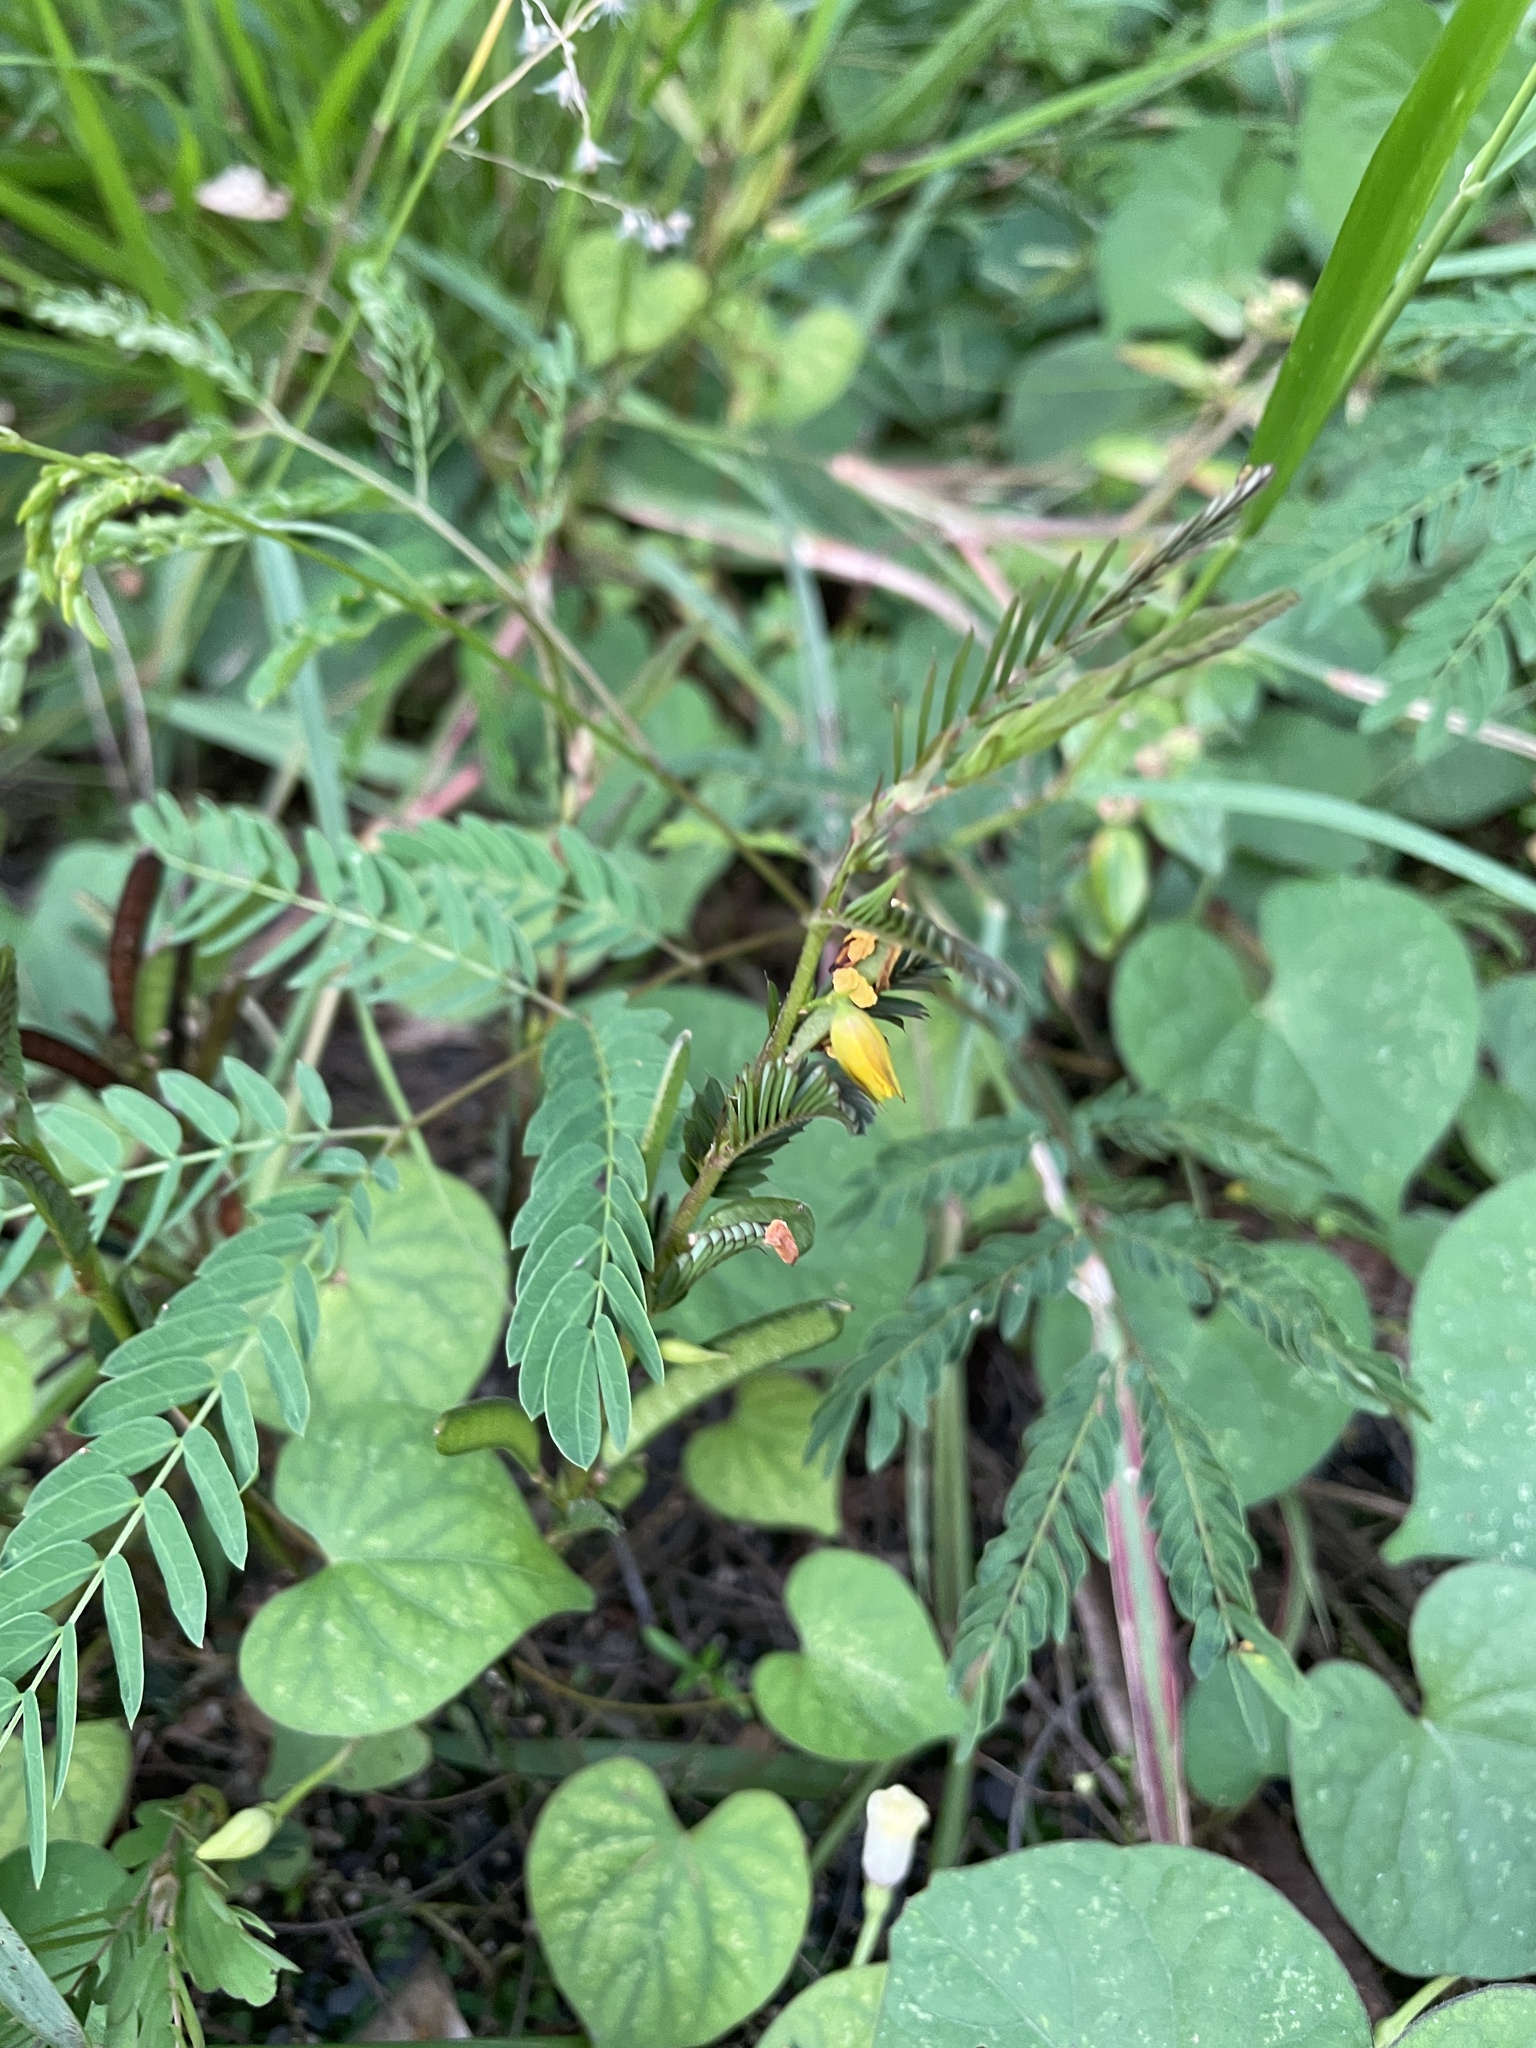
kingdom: Plantae
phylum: Tracheophyta
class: Magnoliopsida
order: Fabales
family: Fabaceae
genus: Chamaecrista
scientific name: Chamaecrista nictitans
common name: Sensitive cassia
